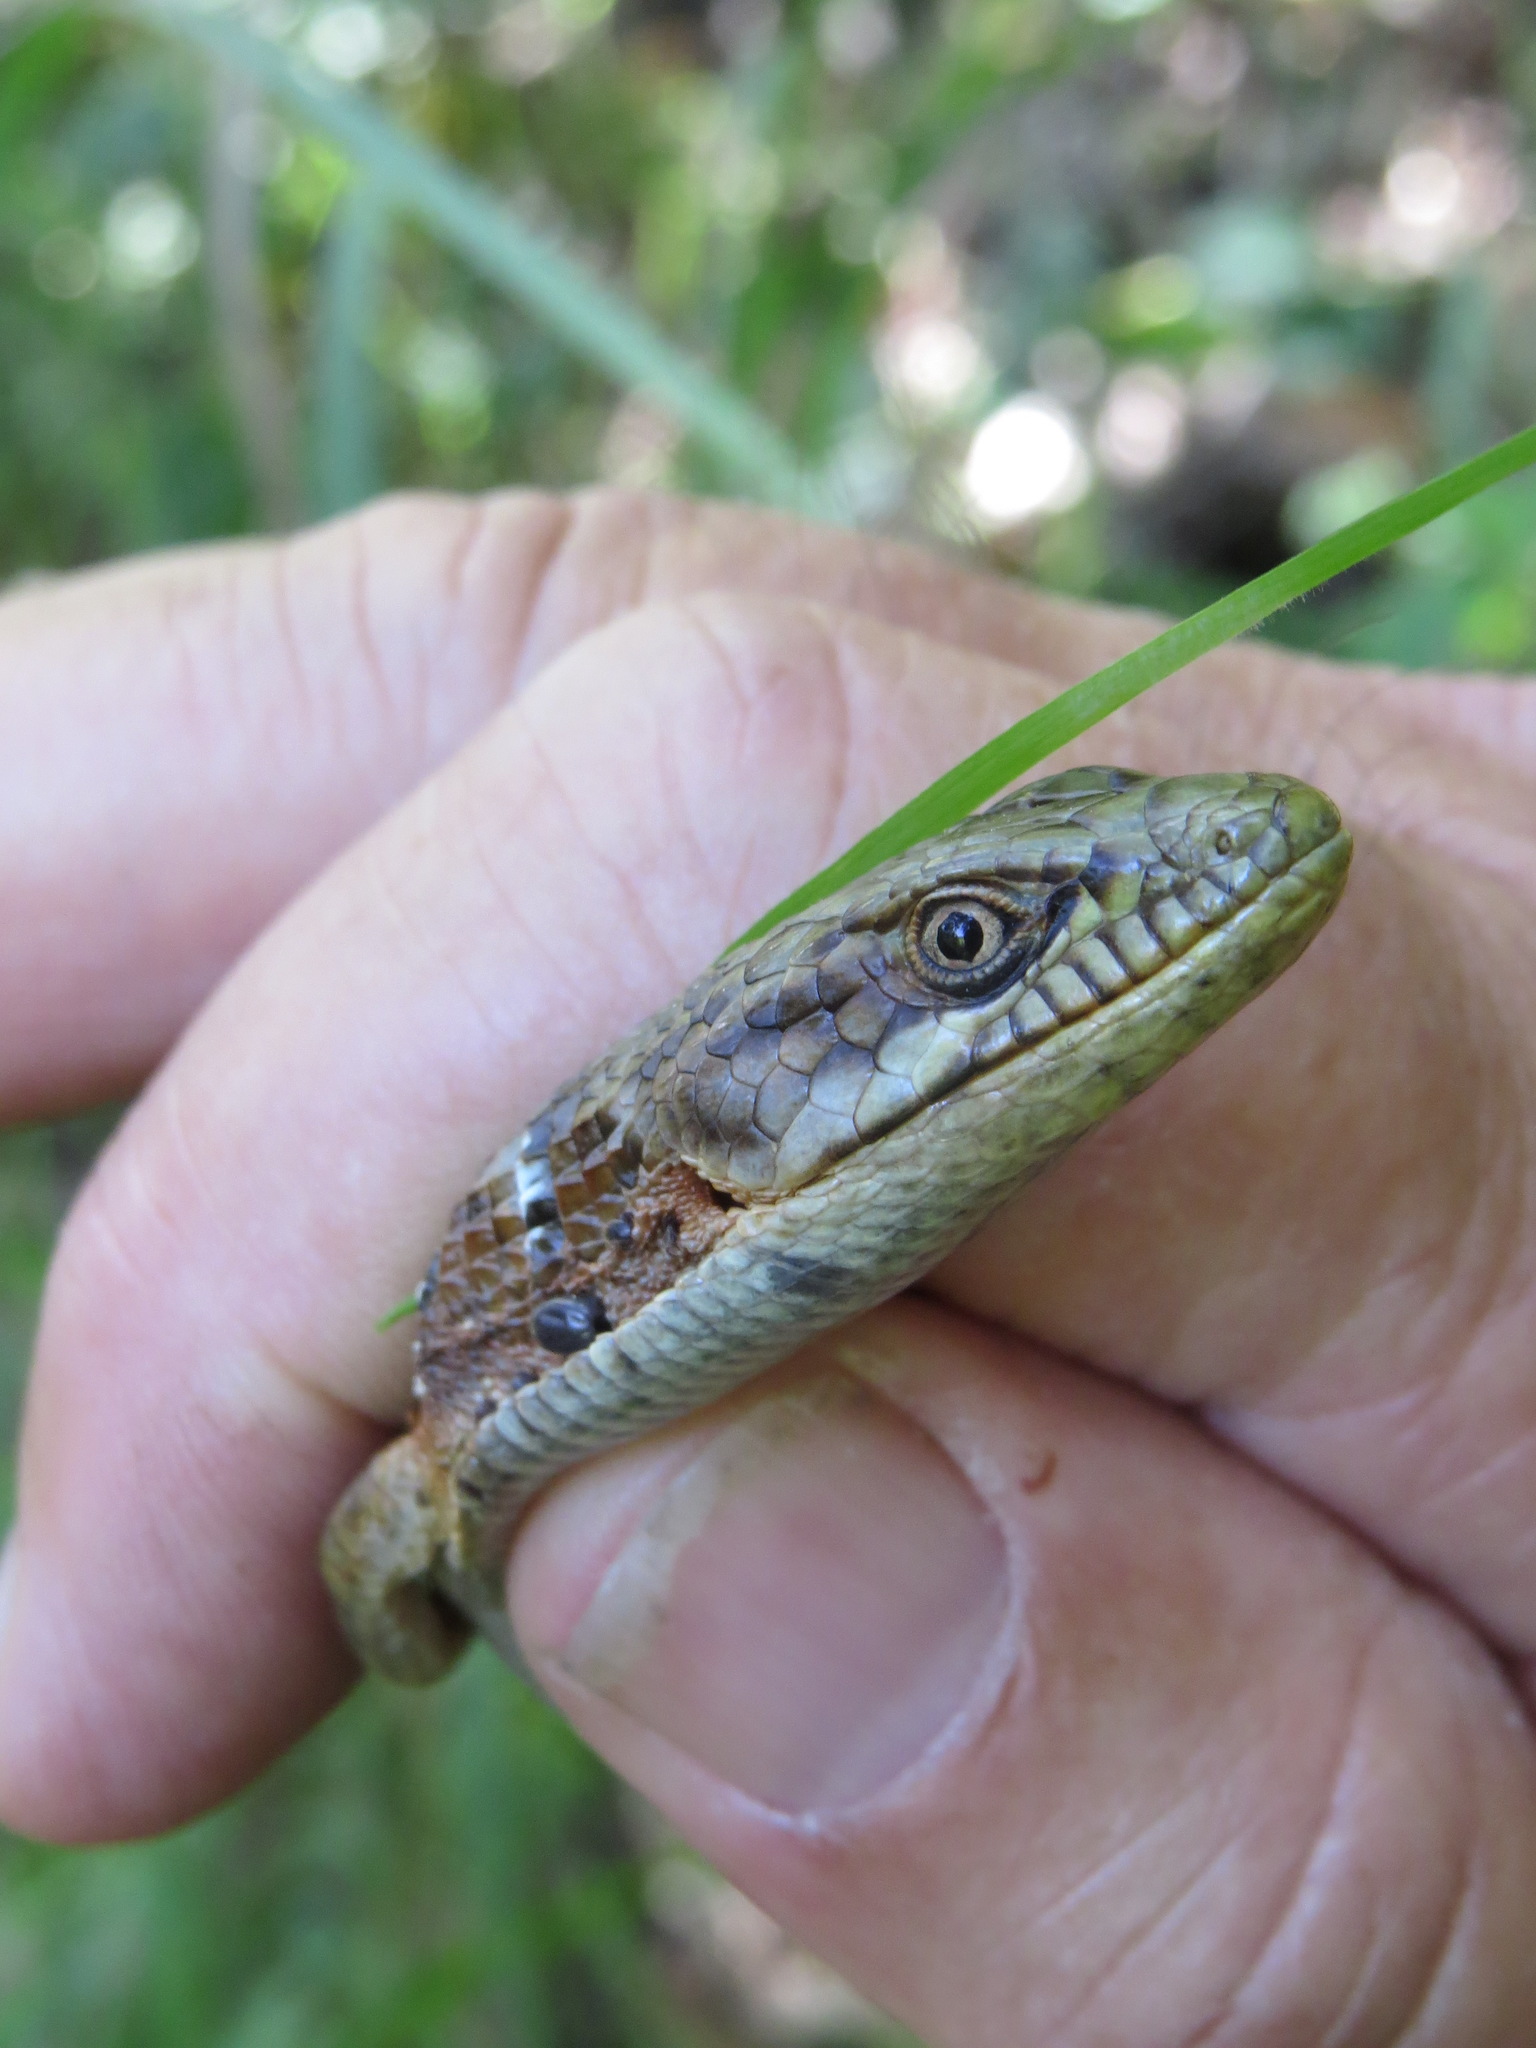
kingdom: Animalia
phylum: Chordata
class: Squamata
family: Anguidae
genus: Elgaria
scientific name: Elgaria multicarinata
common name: Southern alligator lizard
